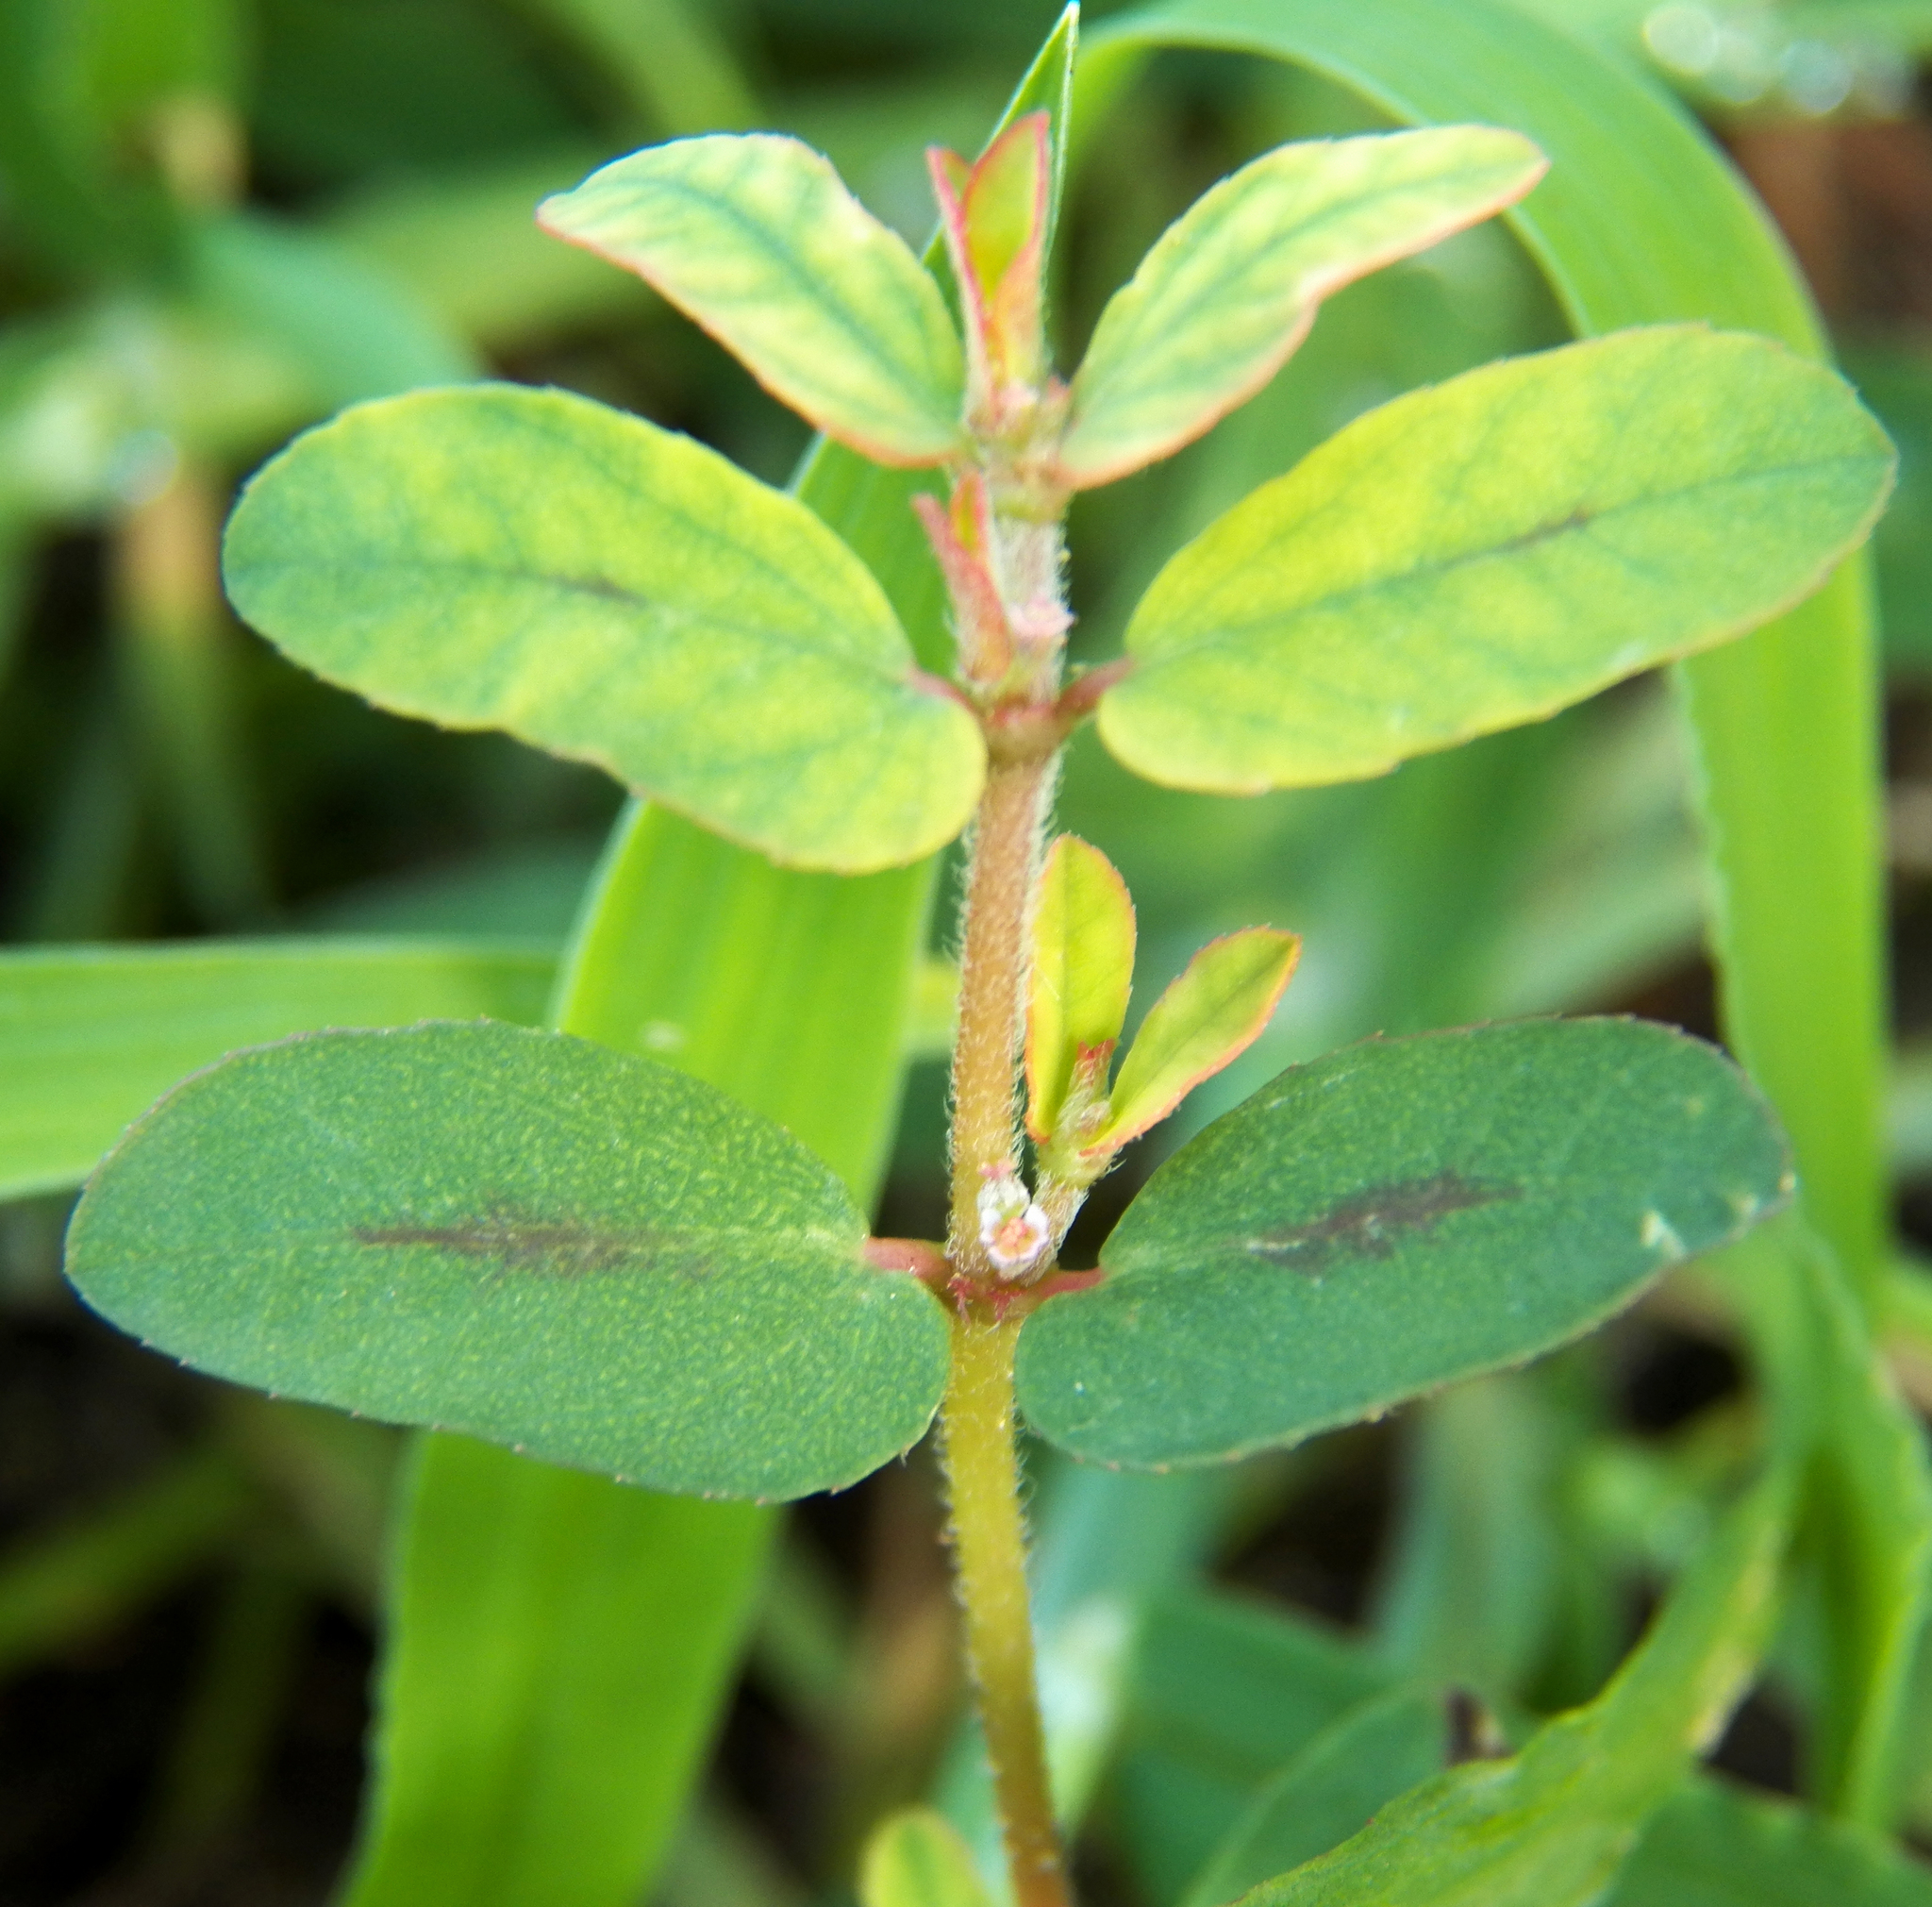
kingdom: Plantae
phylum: Tracheophyta
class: Magnoliopsida
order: Malpighiales
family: Euphorbiaceae
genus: Euphorbia
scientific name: Euphorbia maculata
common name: Spotted spurge
